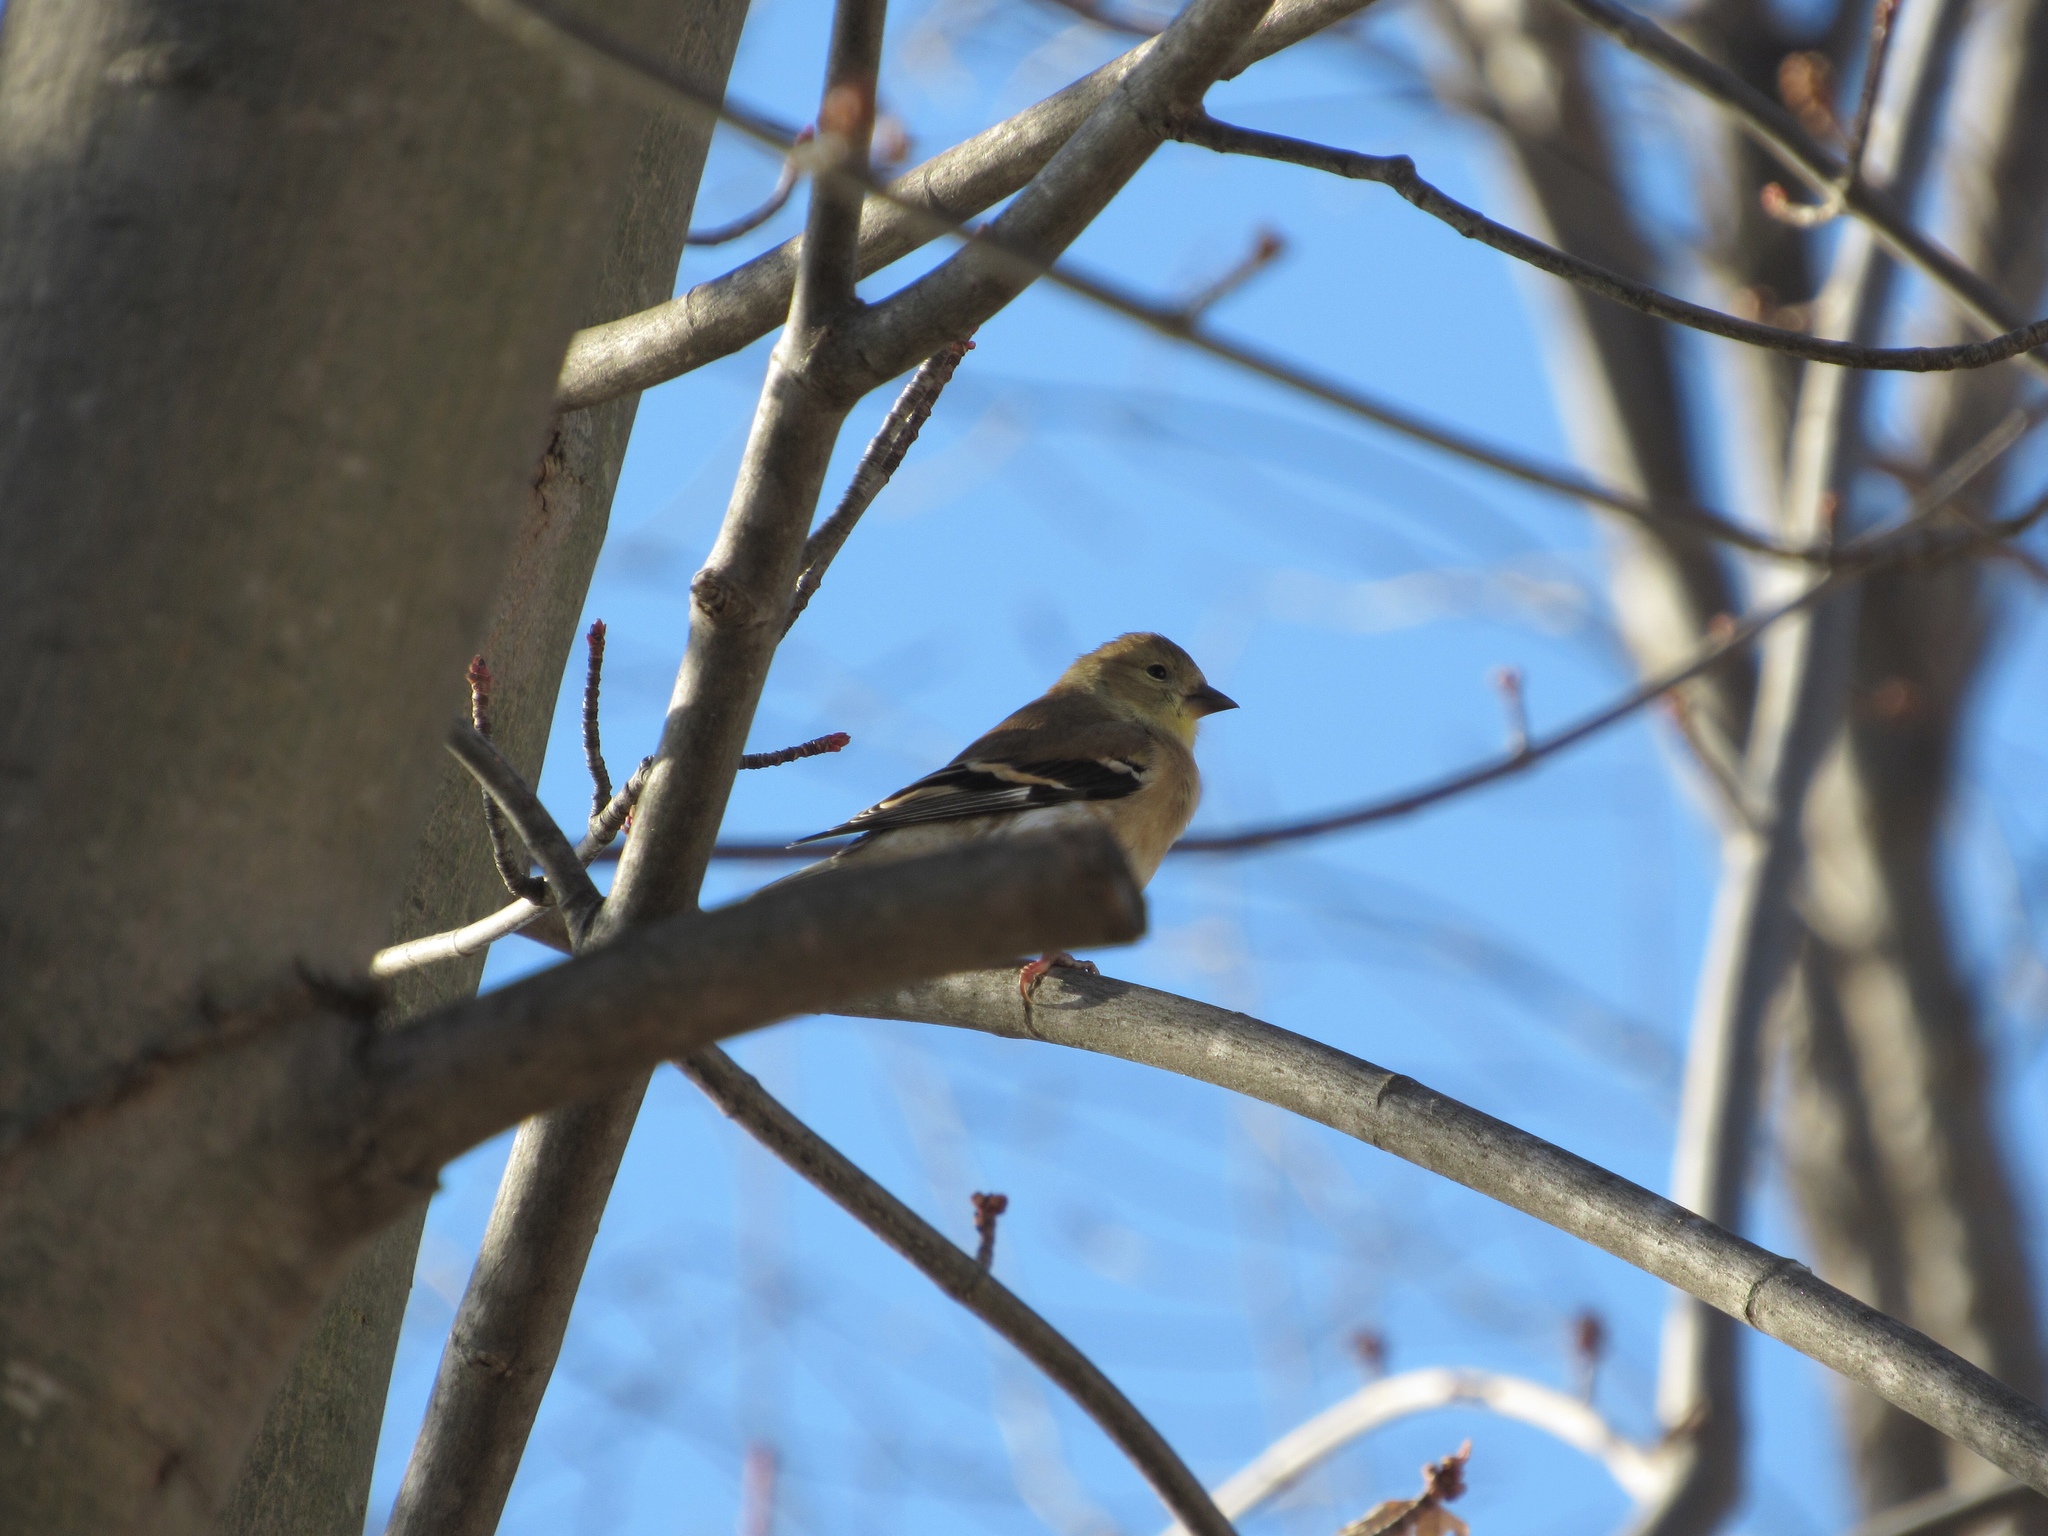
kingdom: Animalia
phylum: Chordata
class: Aves
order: Passeriformes
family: Fringillidae
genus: Spinus
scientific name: Spinus tristis
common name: American goldfinch
